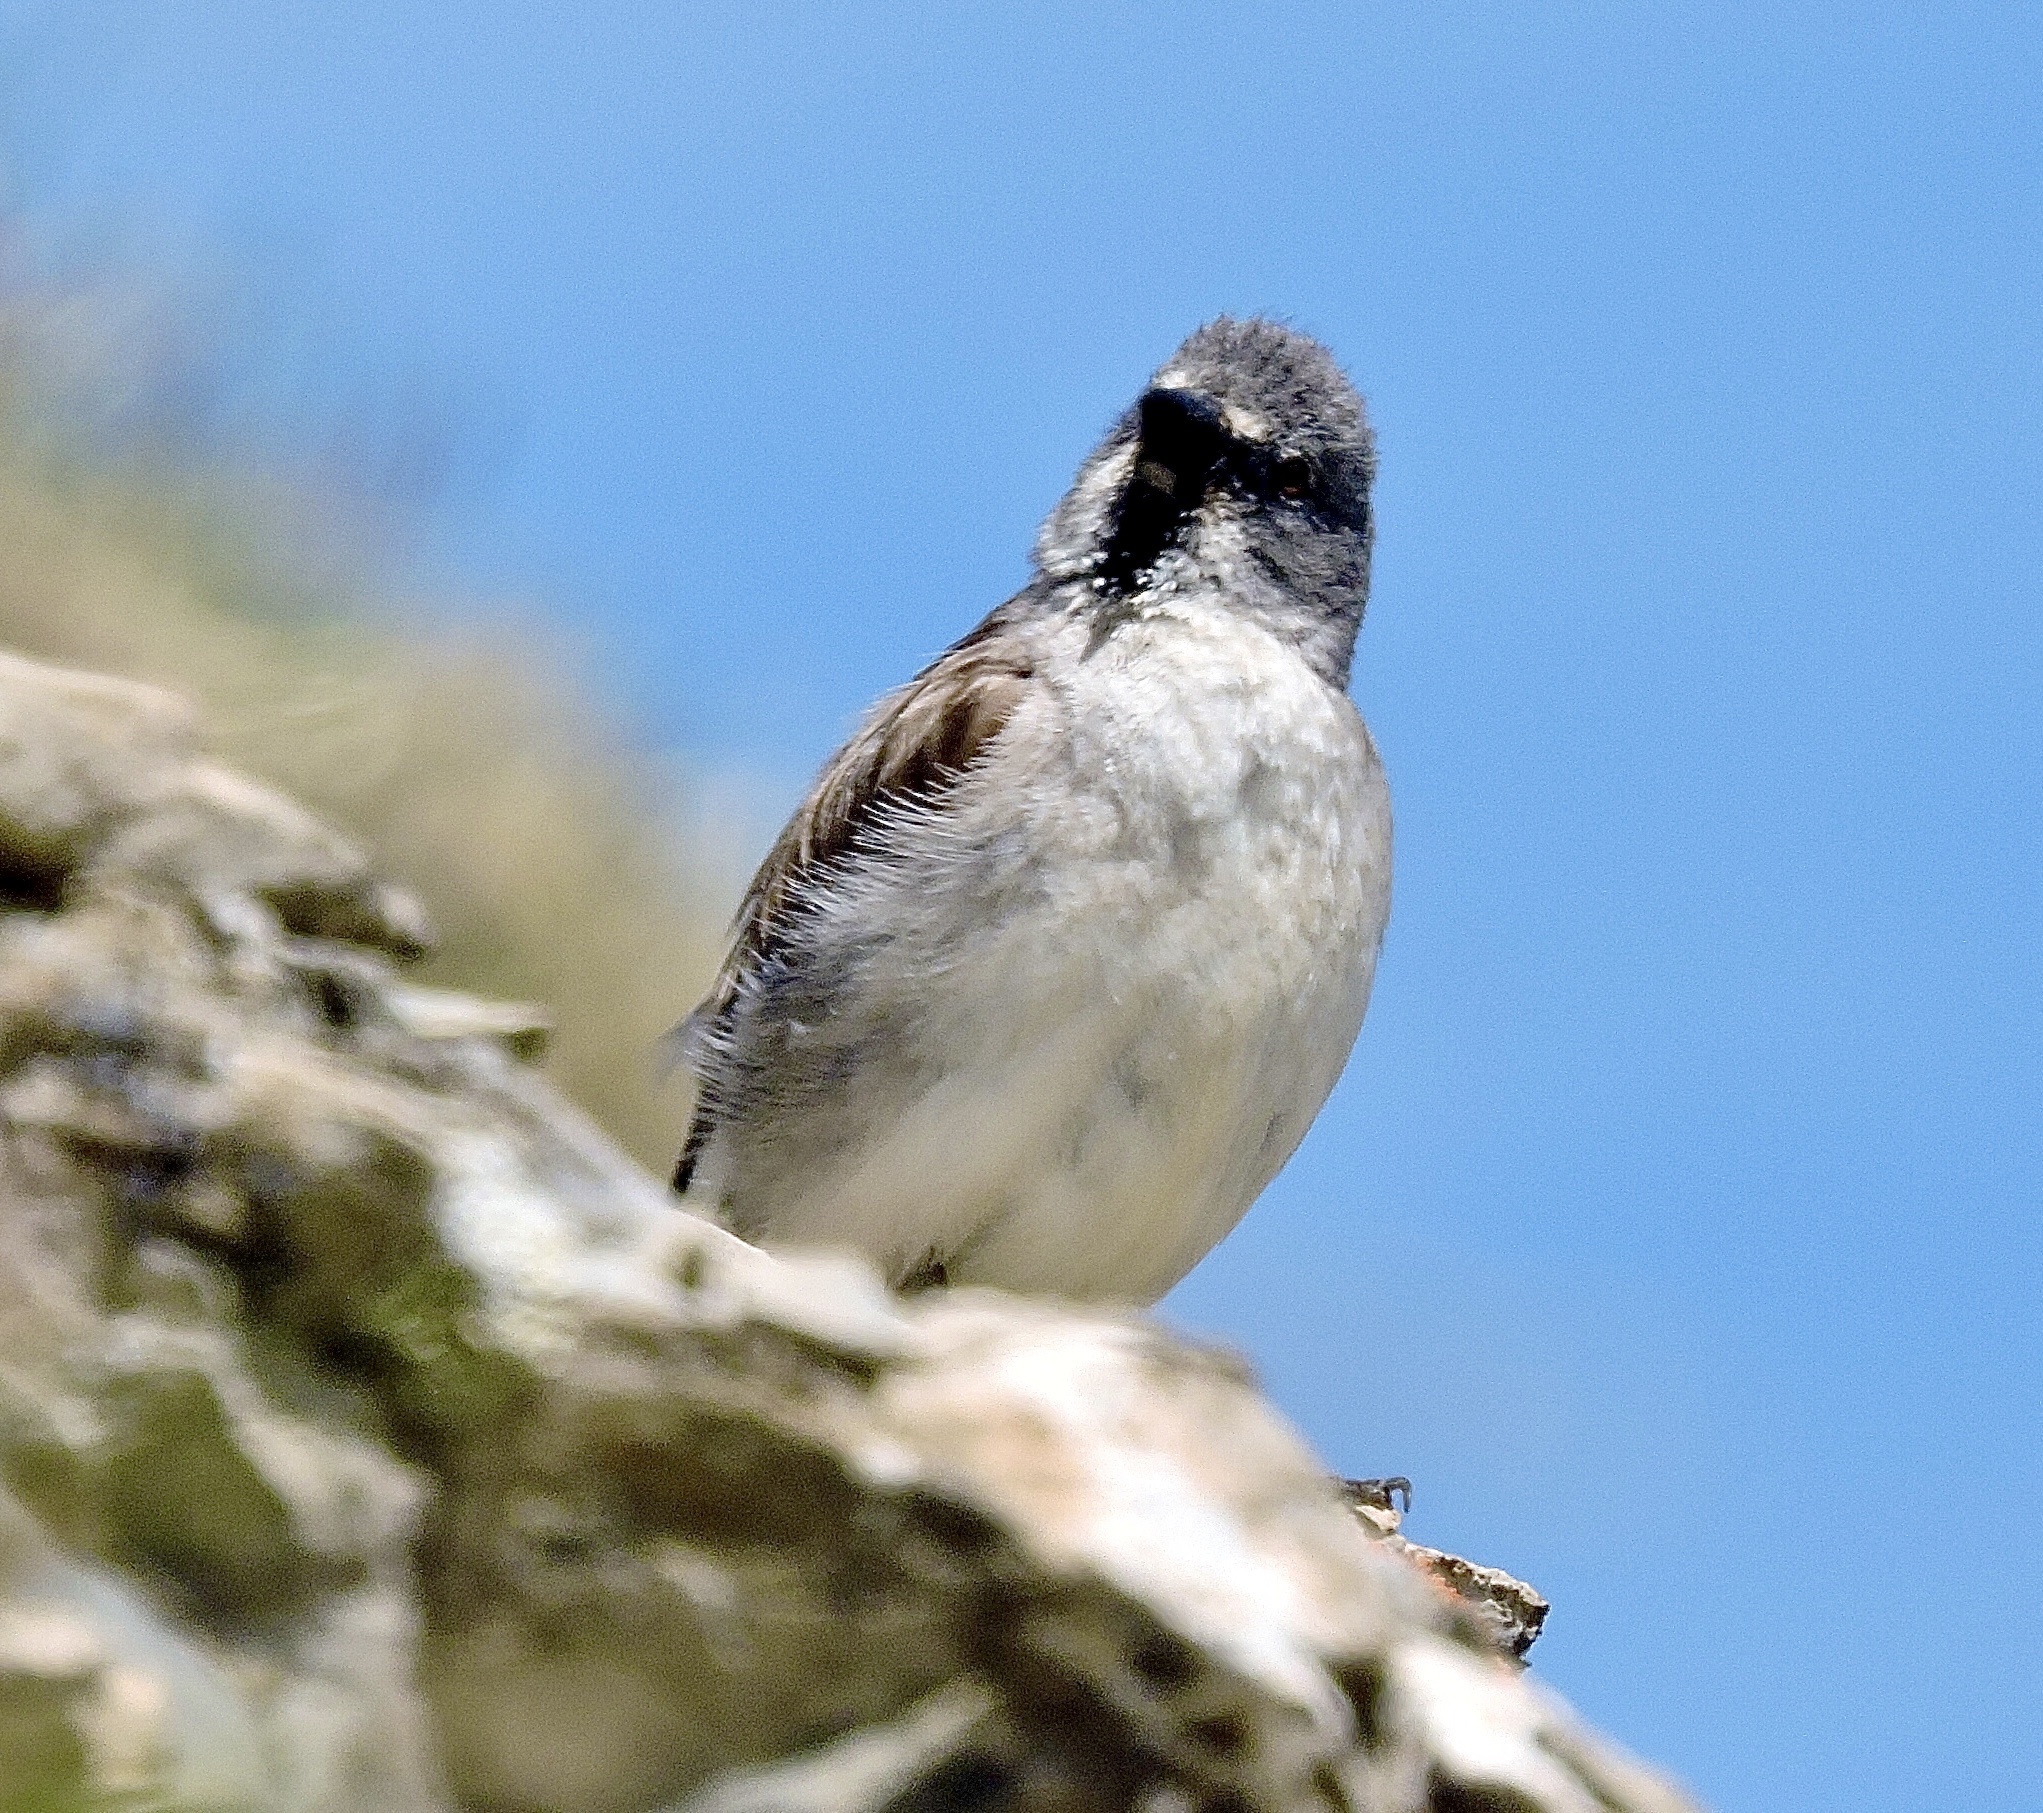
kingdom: Animalia
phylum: Chordata
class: Aves
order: Passeriformes
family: Passeridae
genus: Montifringilla
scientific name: Montifringilla nivalis
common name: White-winged snowfinch
